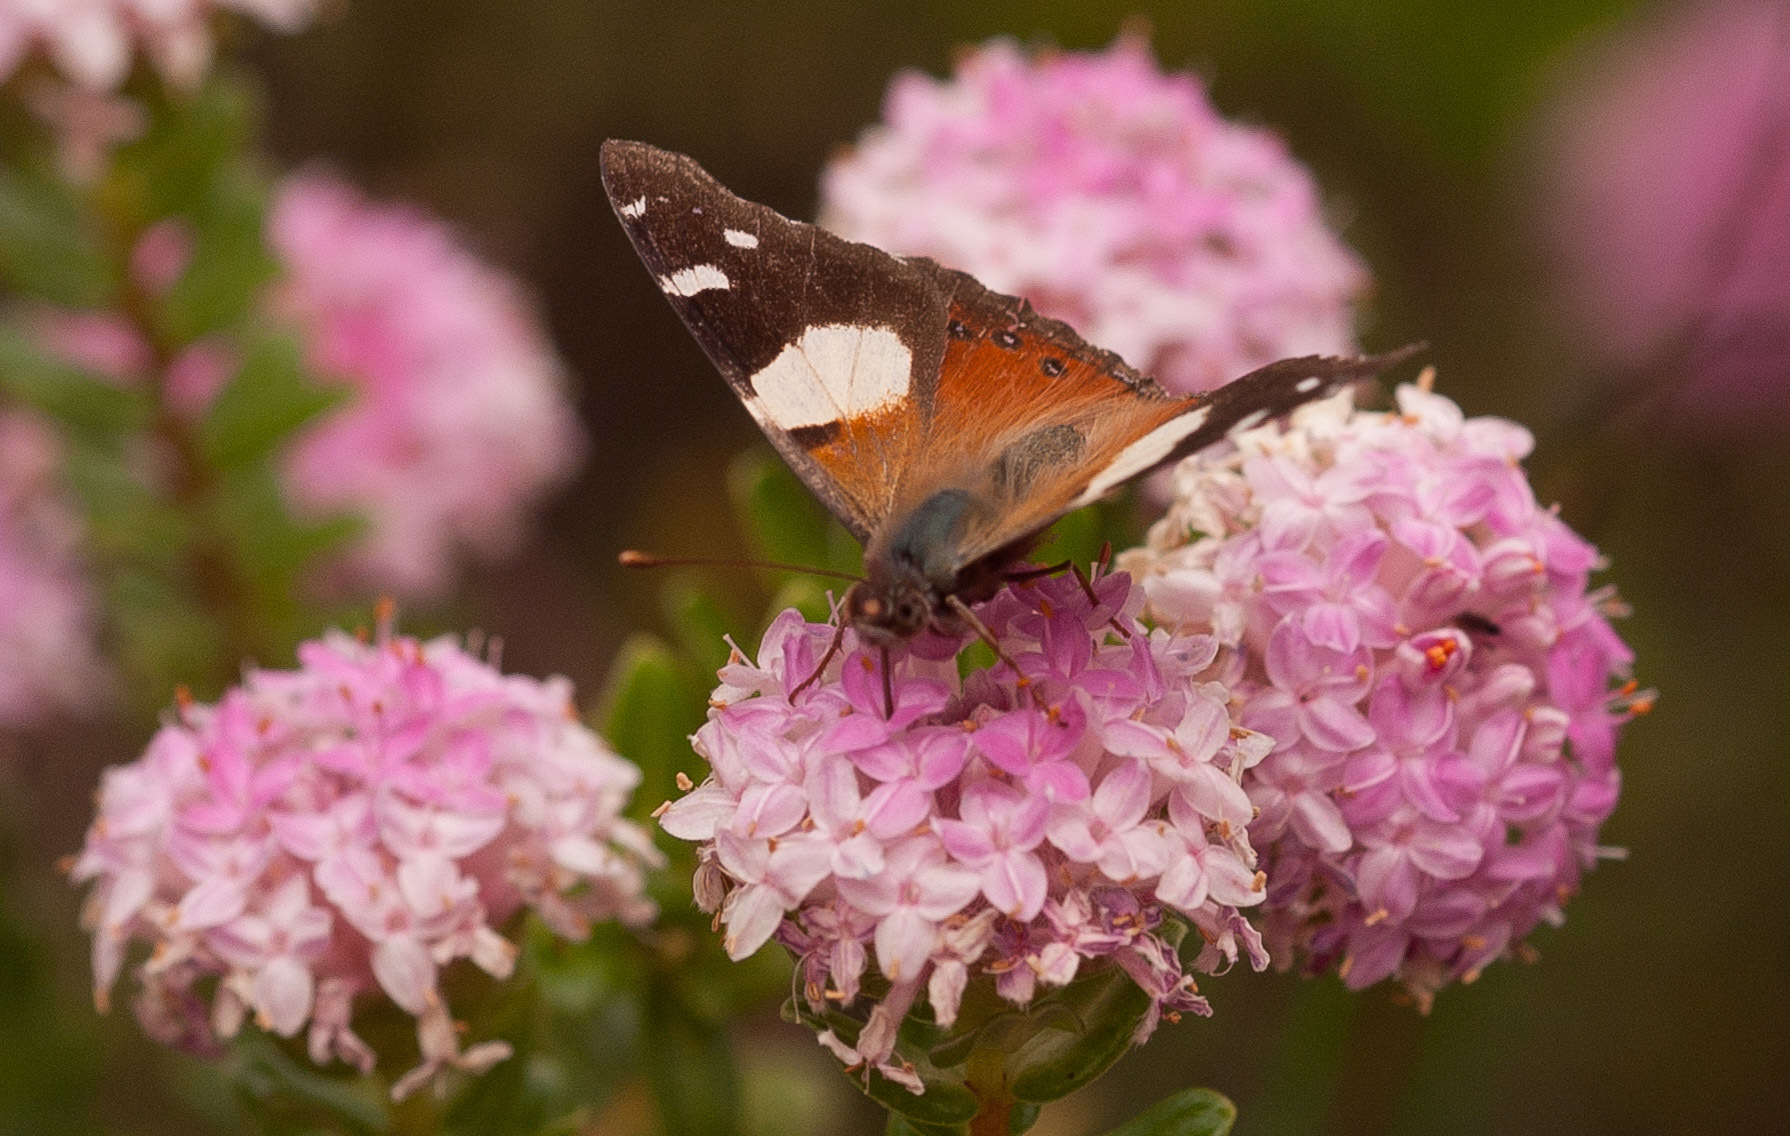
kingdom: Animalia
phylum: Arthropoda
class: Insecta
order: Lepidoptera
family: Nymphalidae
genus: Vanessa
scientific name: Vanessa itea
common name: Yellow admiral
